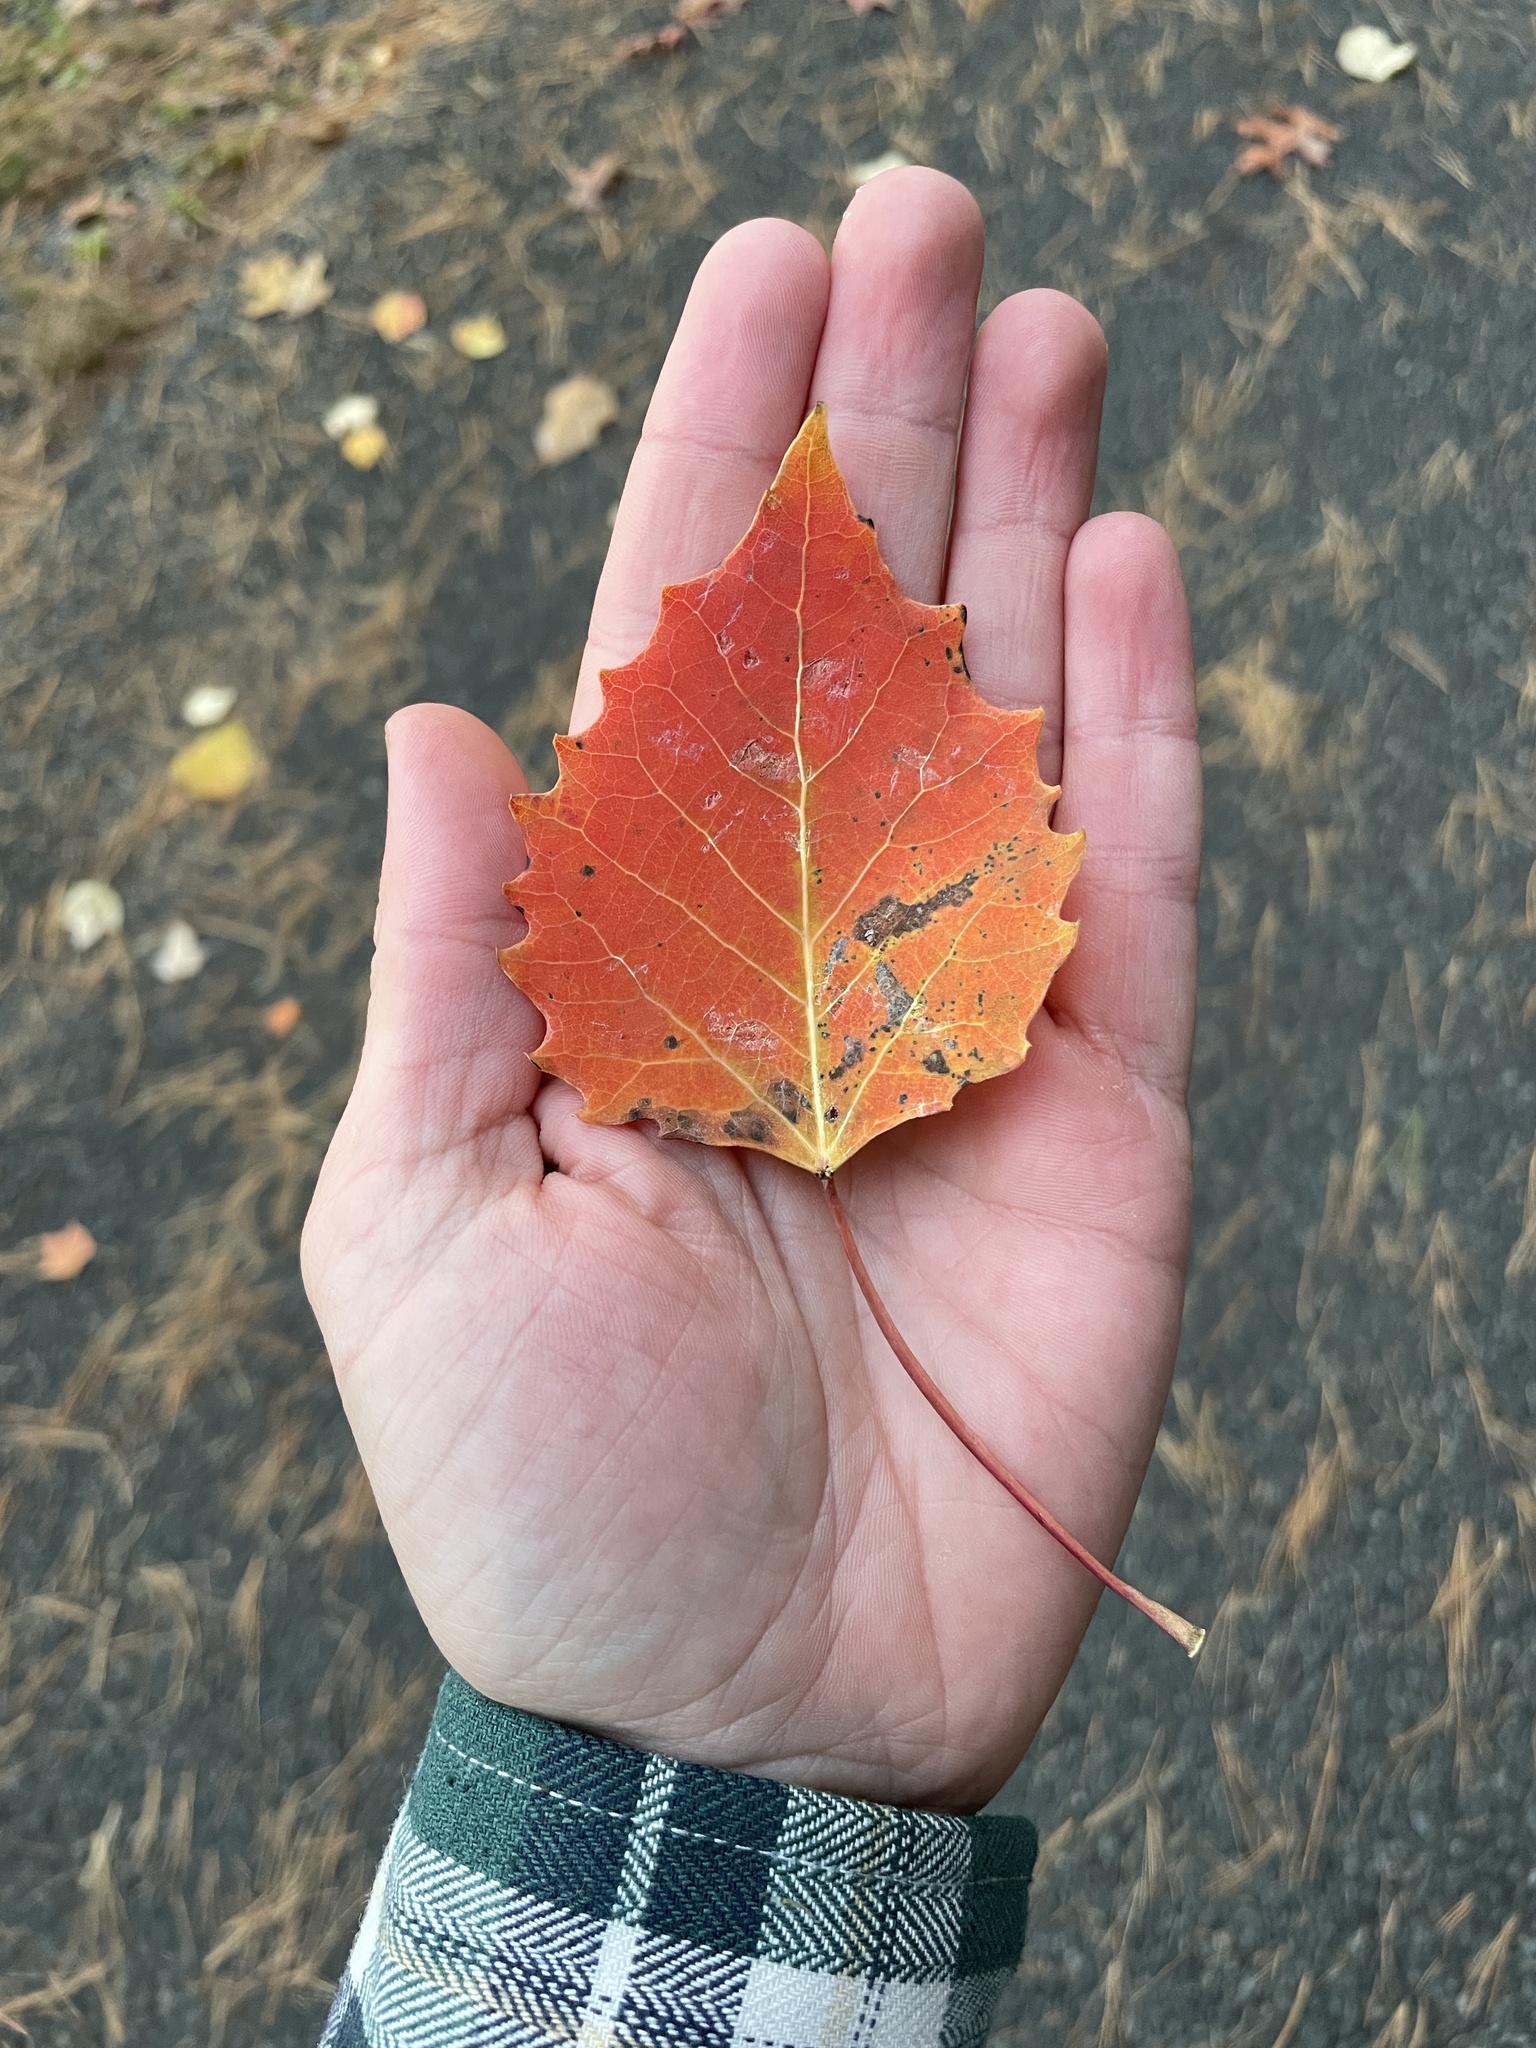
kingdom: Plantae
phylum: Tracheophyta
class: Magnoliopsida
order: Malpighiales
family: Salicaceae
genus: Populus
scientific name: Populus grandidentata
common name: Bigtooth aspen
